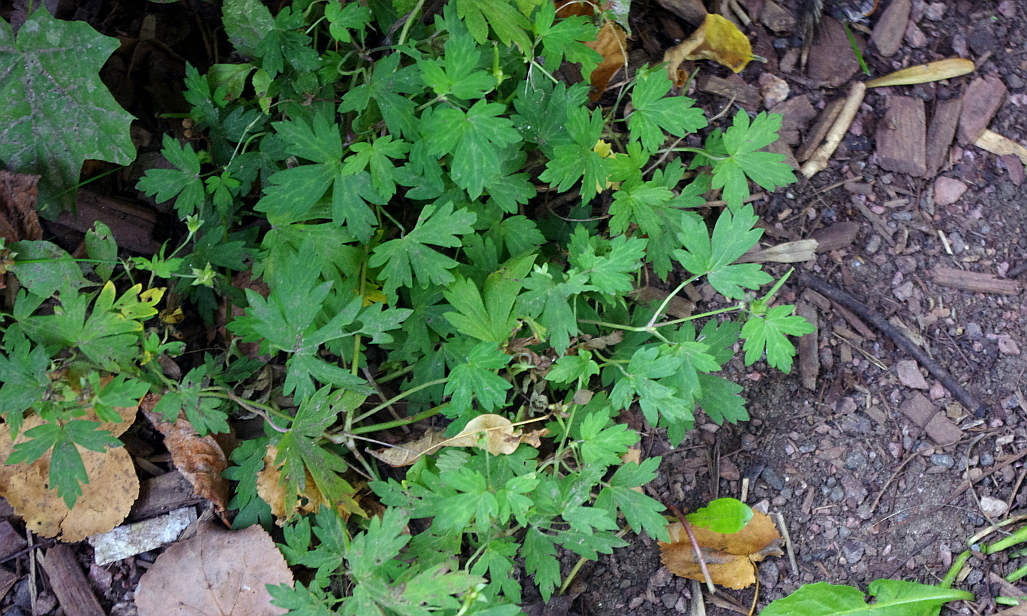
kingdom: Plantae
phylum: Tracheophyta
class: Magnoliopsida
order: Geraniales
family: Geraniaceae
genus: Geranium
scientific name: Geranium sibiricum
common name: Siberian crane's-bill
